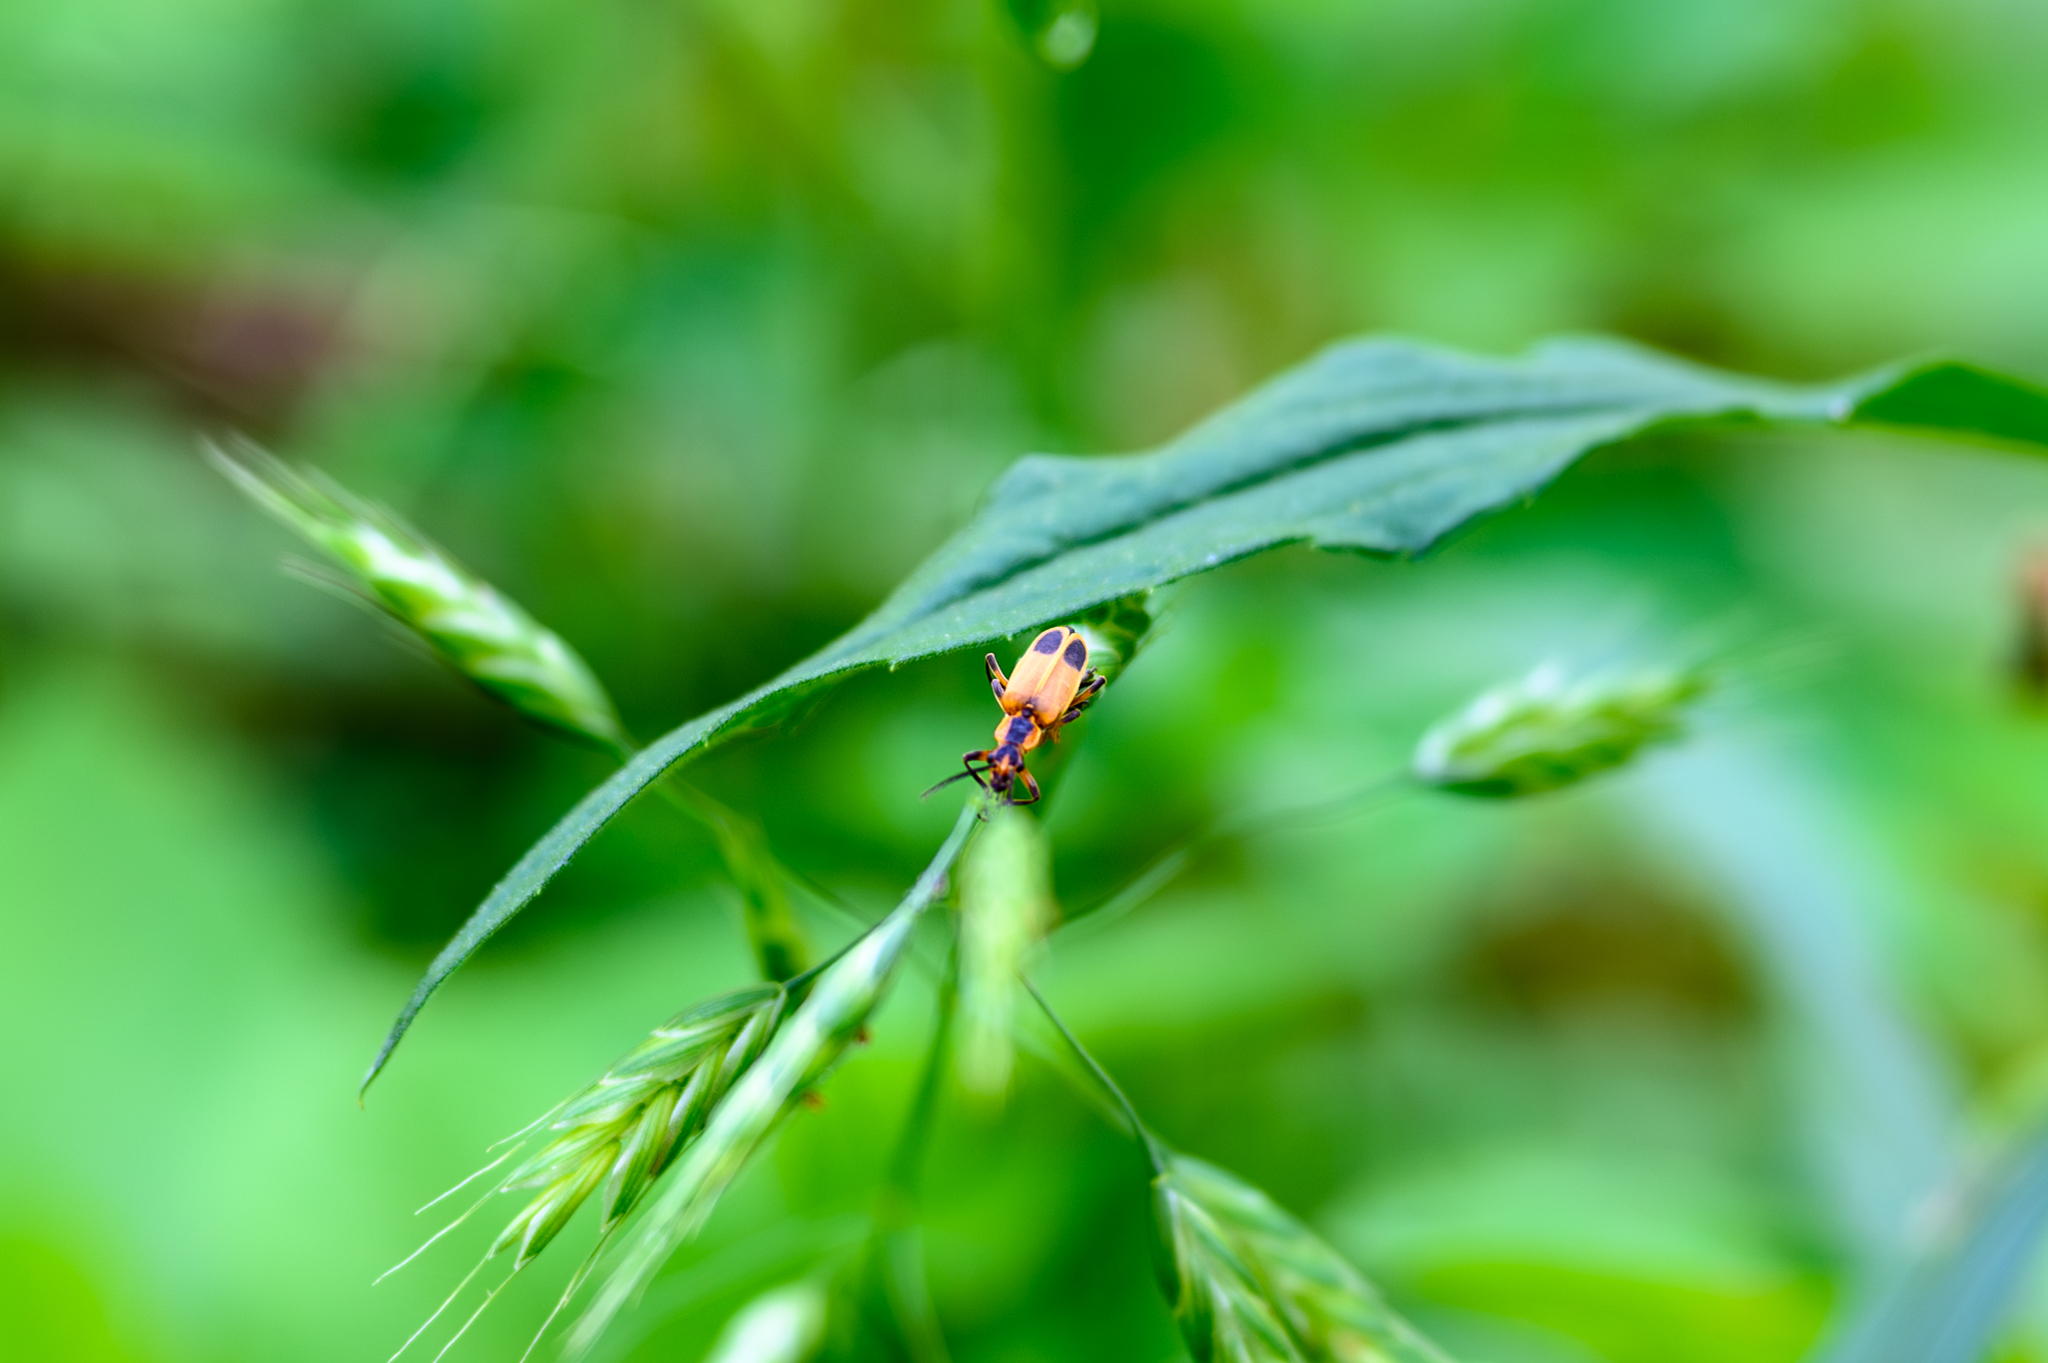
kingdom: Animalia
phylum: Arthropoda
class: Insecta
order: Coleoptera
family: Cantharidae
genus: Chauliognathus
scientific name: Chauliognathus marginatus
